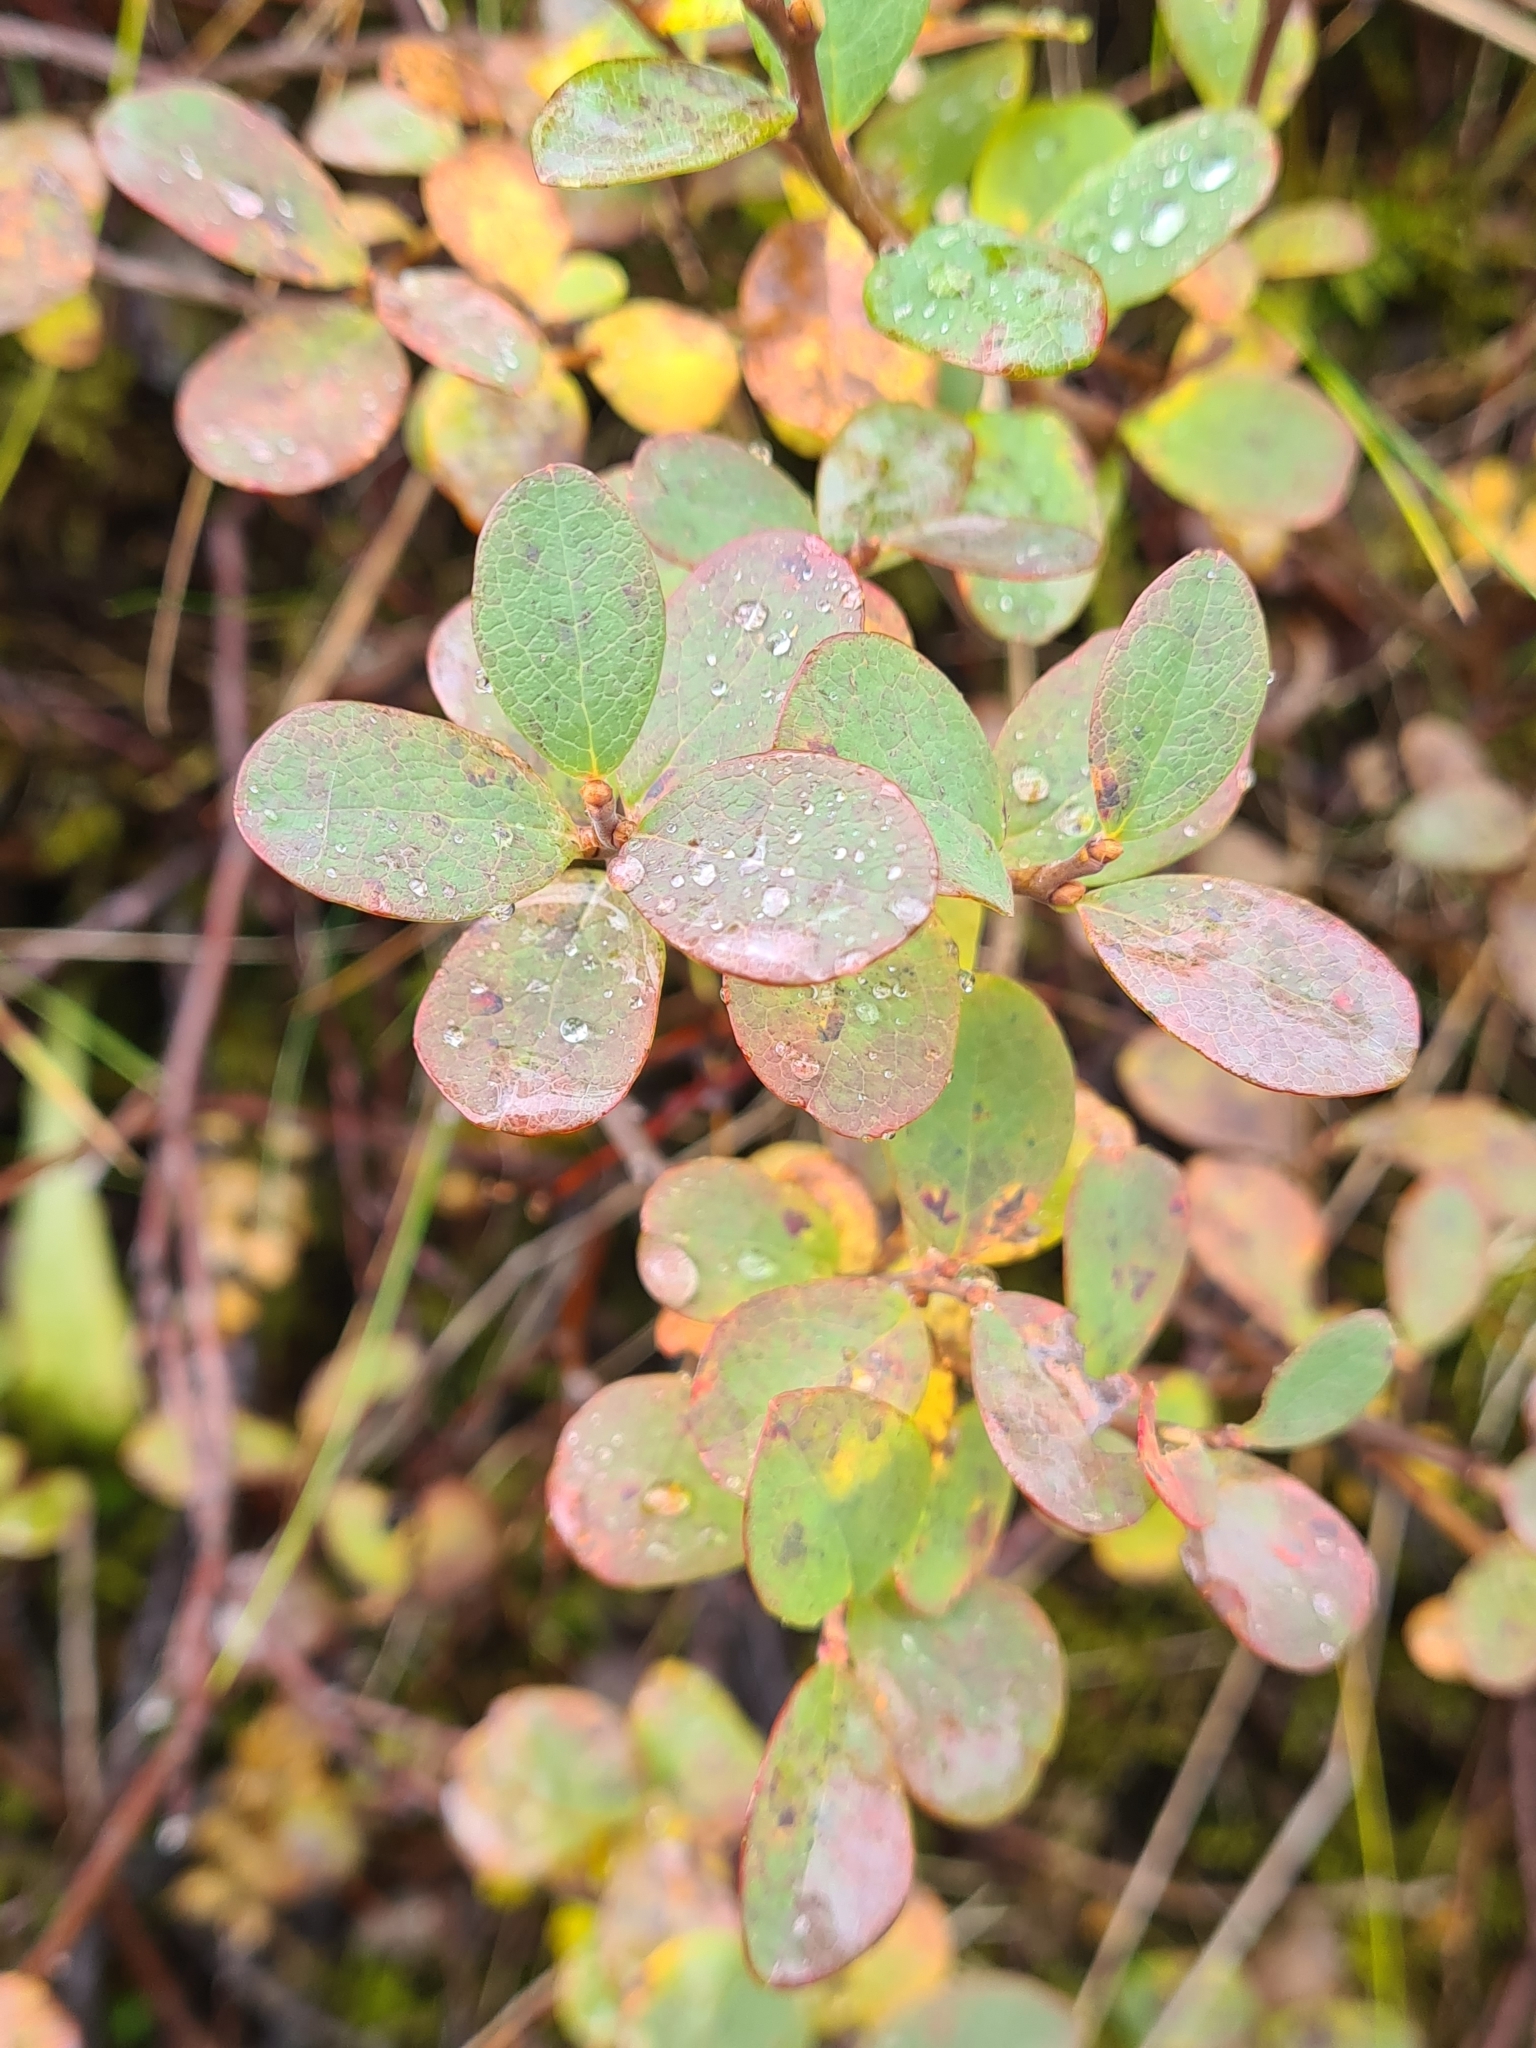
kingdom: Plantae
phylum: Tracheophyta
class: Magnoliopsida
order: Ericales
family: Ericaceae
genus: Vaccinium
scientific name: Vaccinium uliginosum
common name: Bog bilberry
